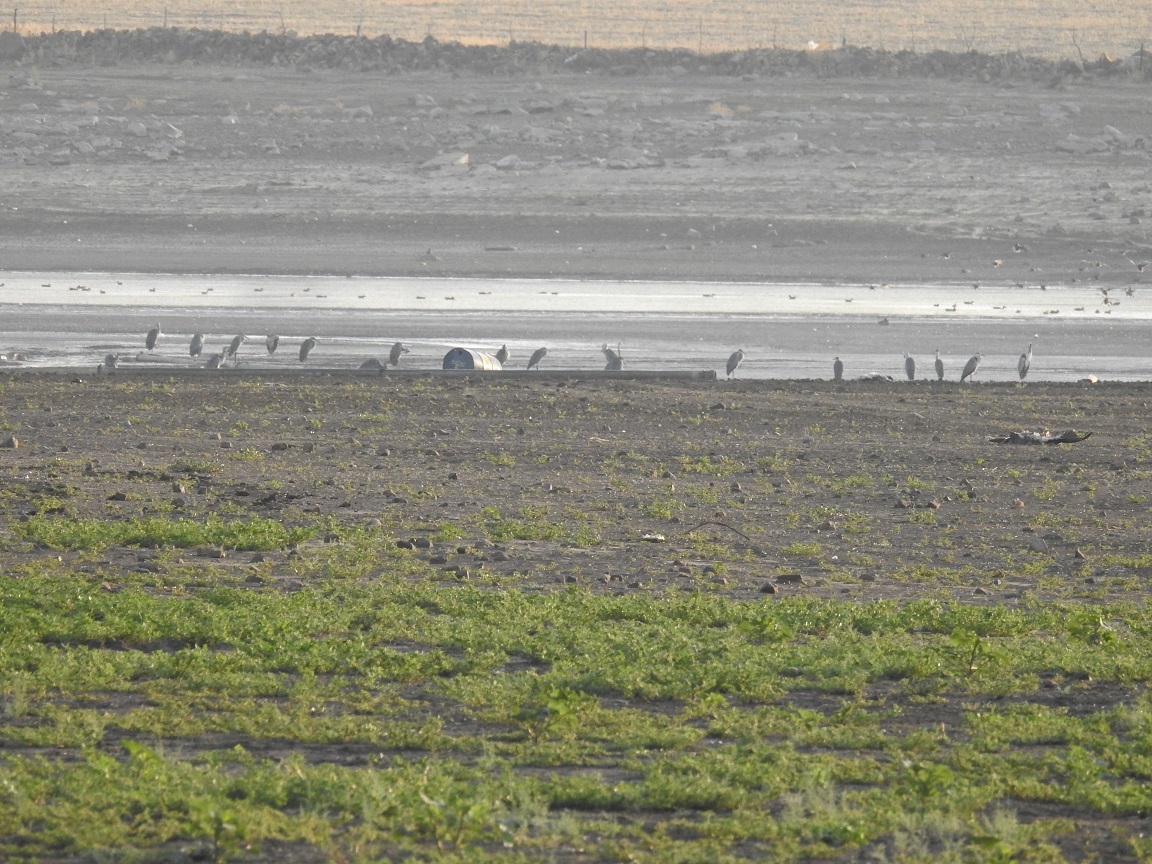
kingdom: Animalia
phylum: Chordata
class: Aves
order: Pelecaniformes
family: Ardeidae
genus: Ardea
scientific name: Ardea cinerea
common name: Grey heron
